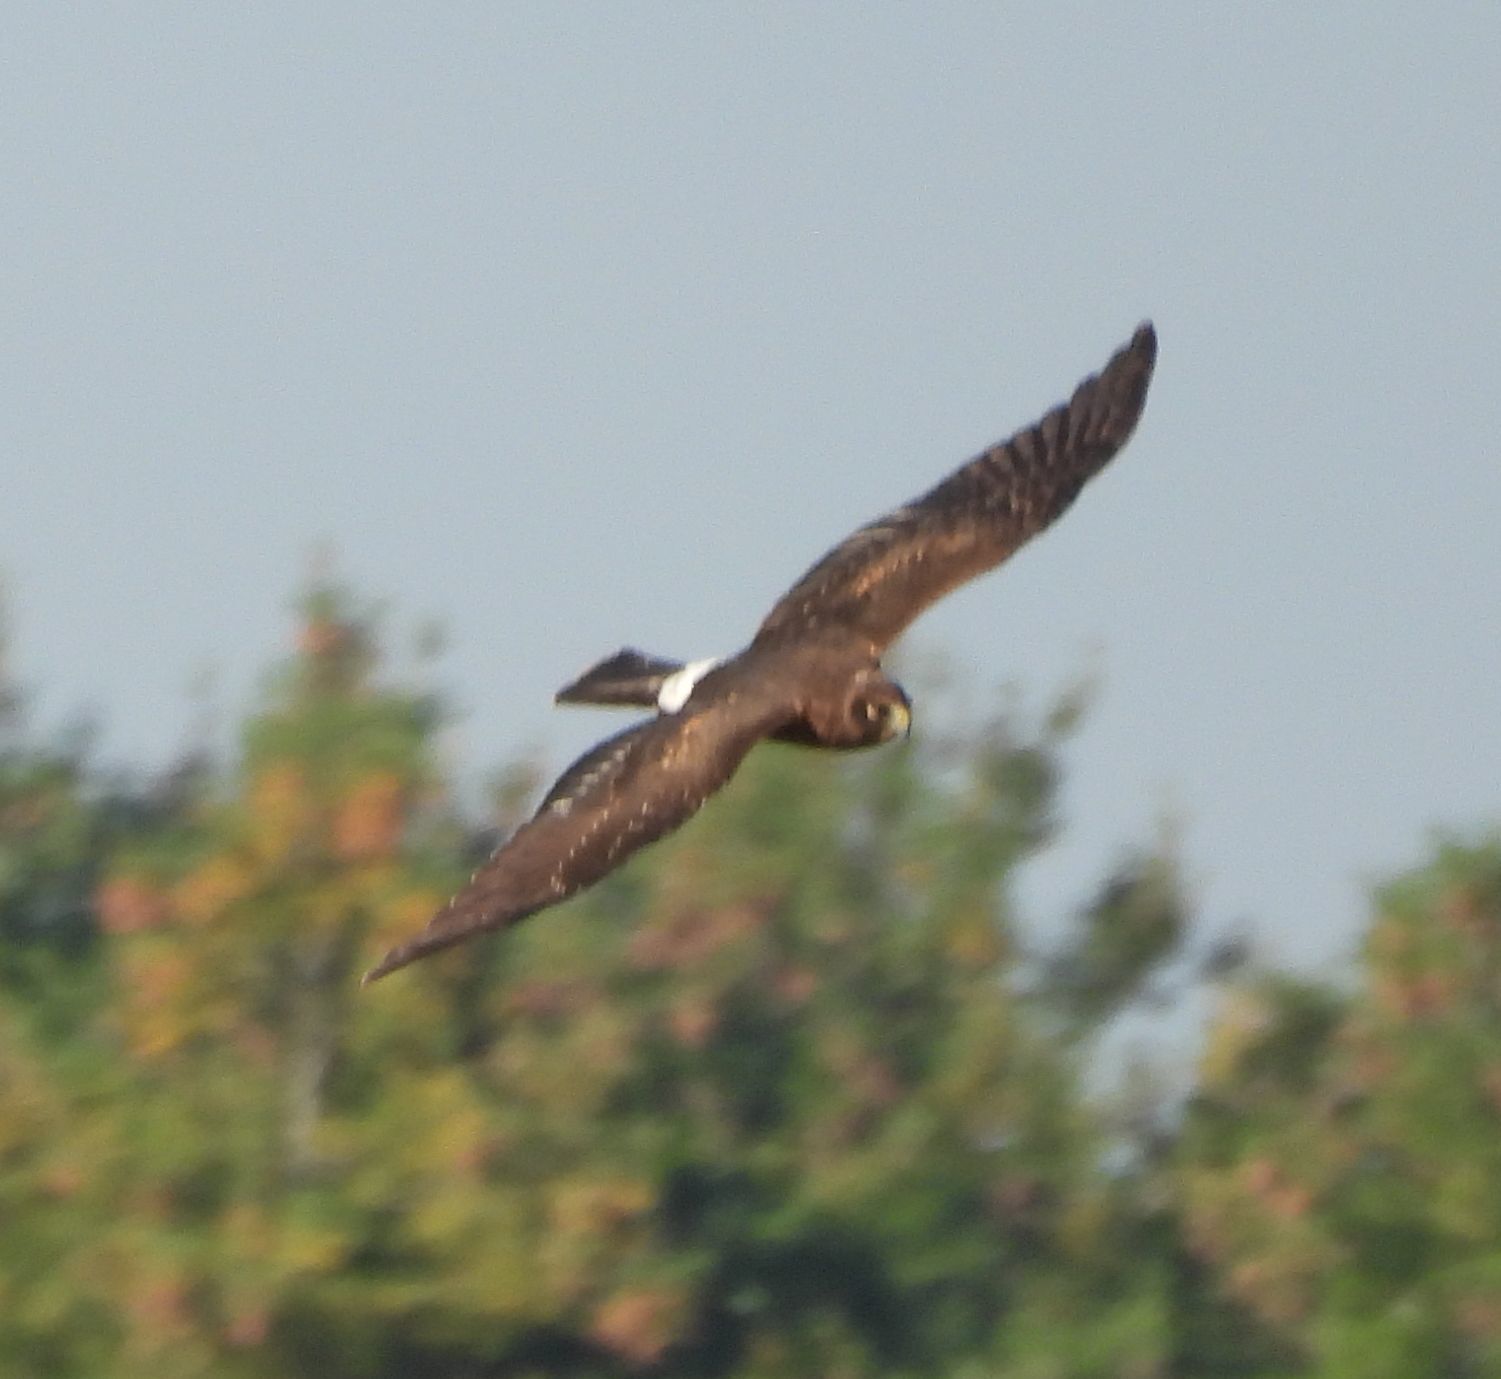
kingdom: Animalia
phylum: Chordata
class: Aves
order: Accipitriformes
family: Accipitridae
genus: Circus
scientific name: Circus cyaneus
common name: Hen harrier
